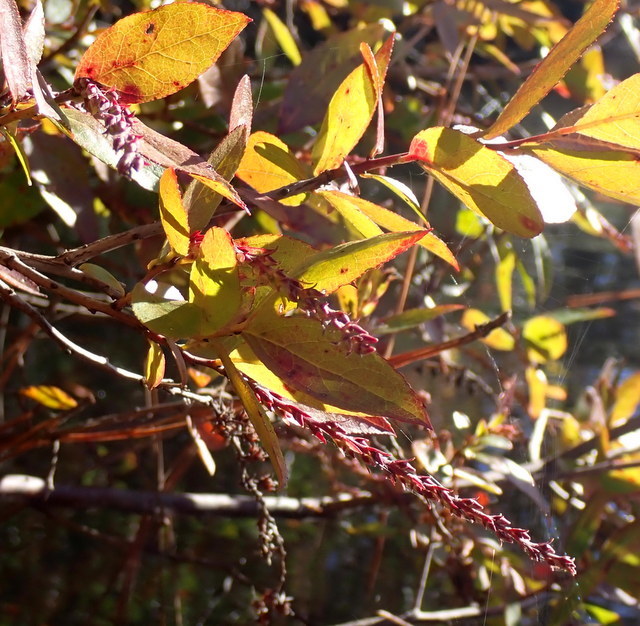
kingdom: Plantae
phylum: Tracheophyta
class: Magnoliopsida
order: Ericales
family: Ericaceae
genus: Eubotrys
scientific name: Eubotrys racemosa
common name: Fetterbush
